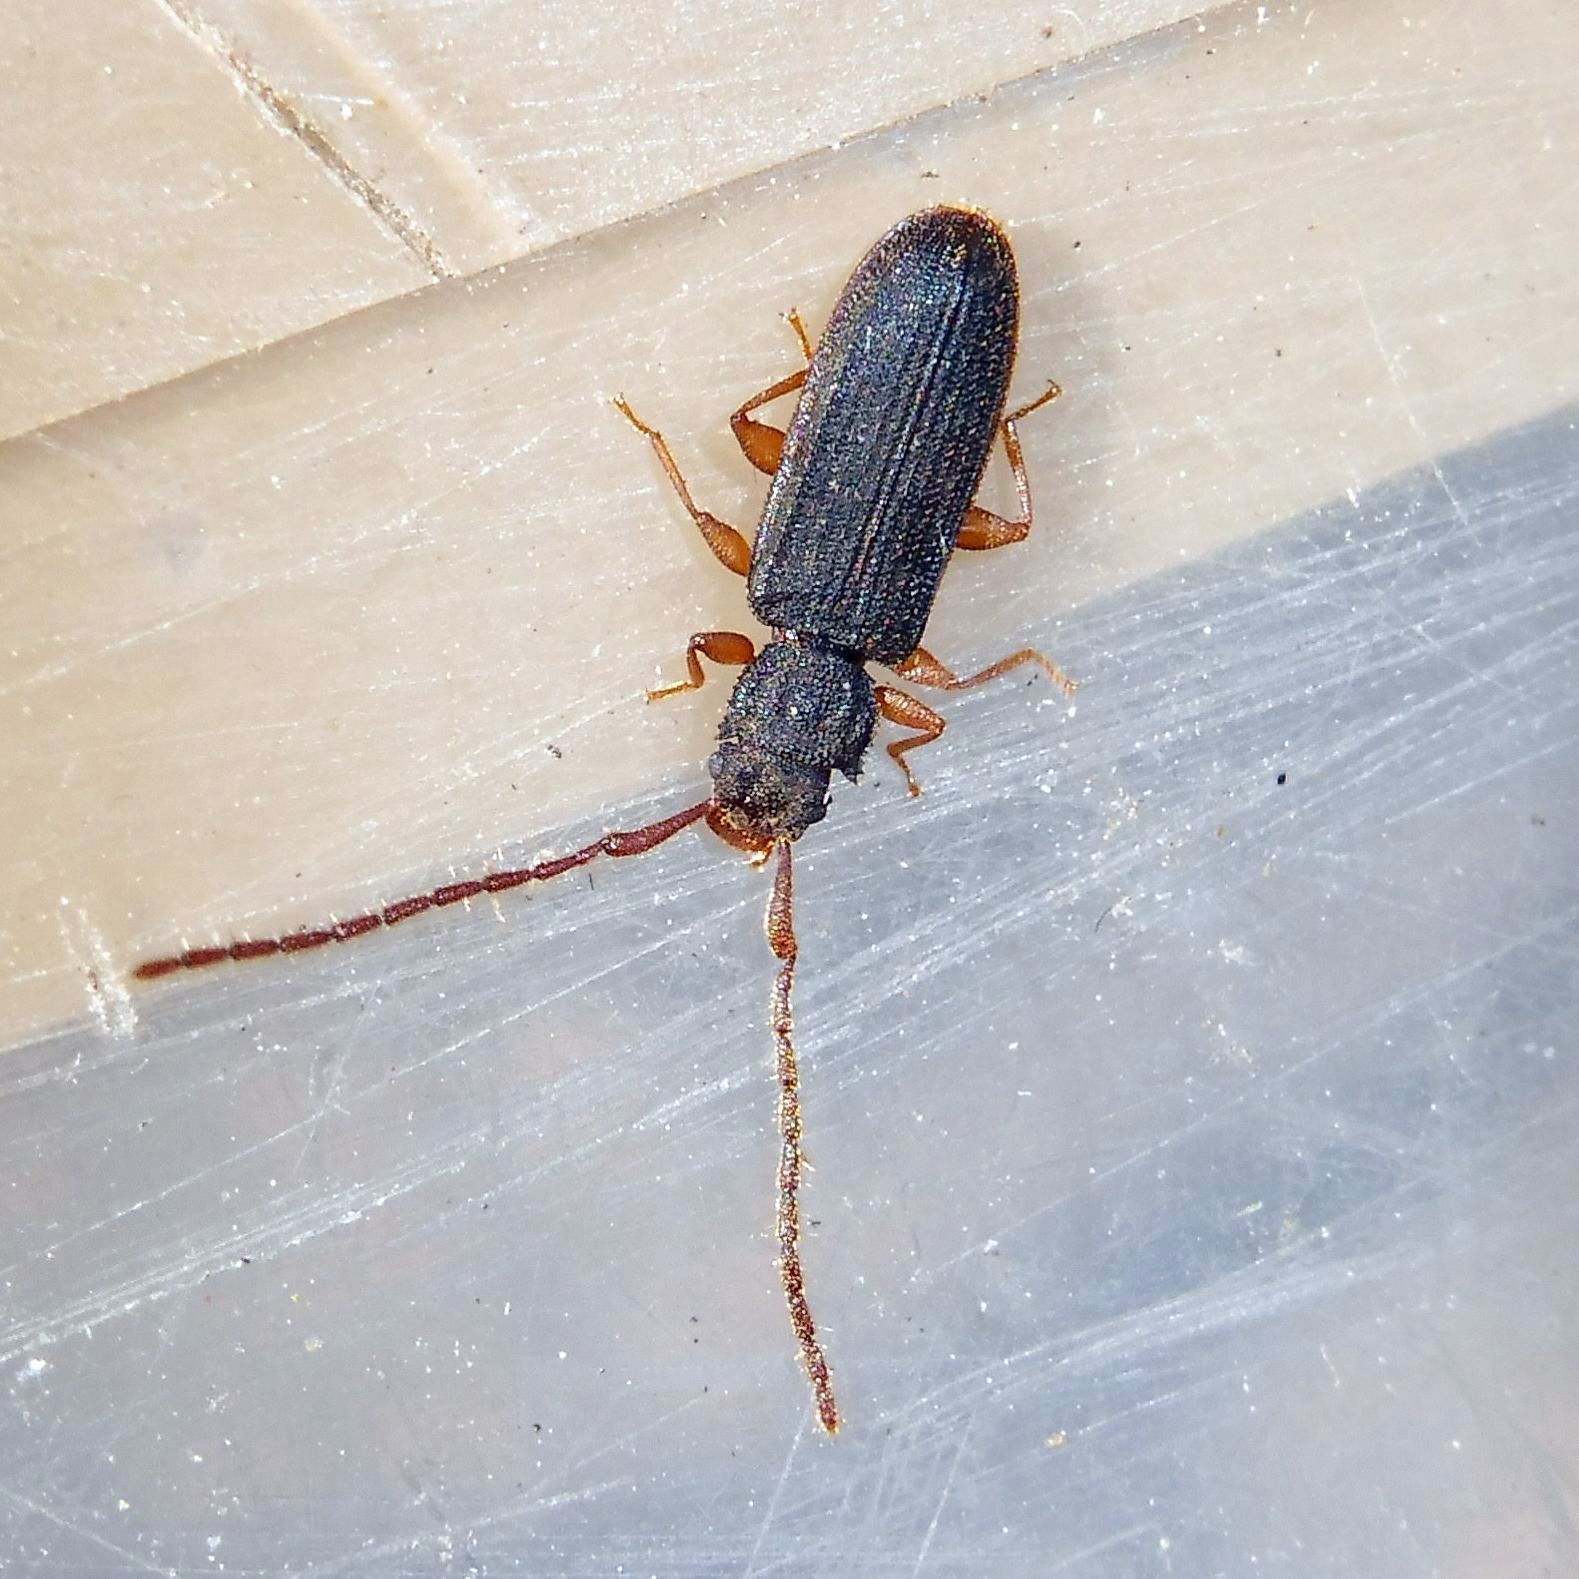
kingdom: Animalia
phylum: Arthropoda
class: Insecta
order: Coleoptera
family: Silvanidae
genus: Uleiota
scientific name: Uleiota planatus
